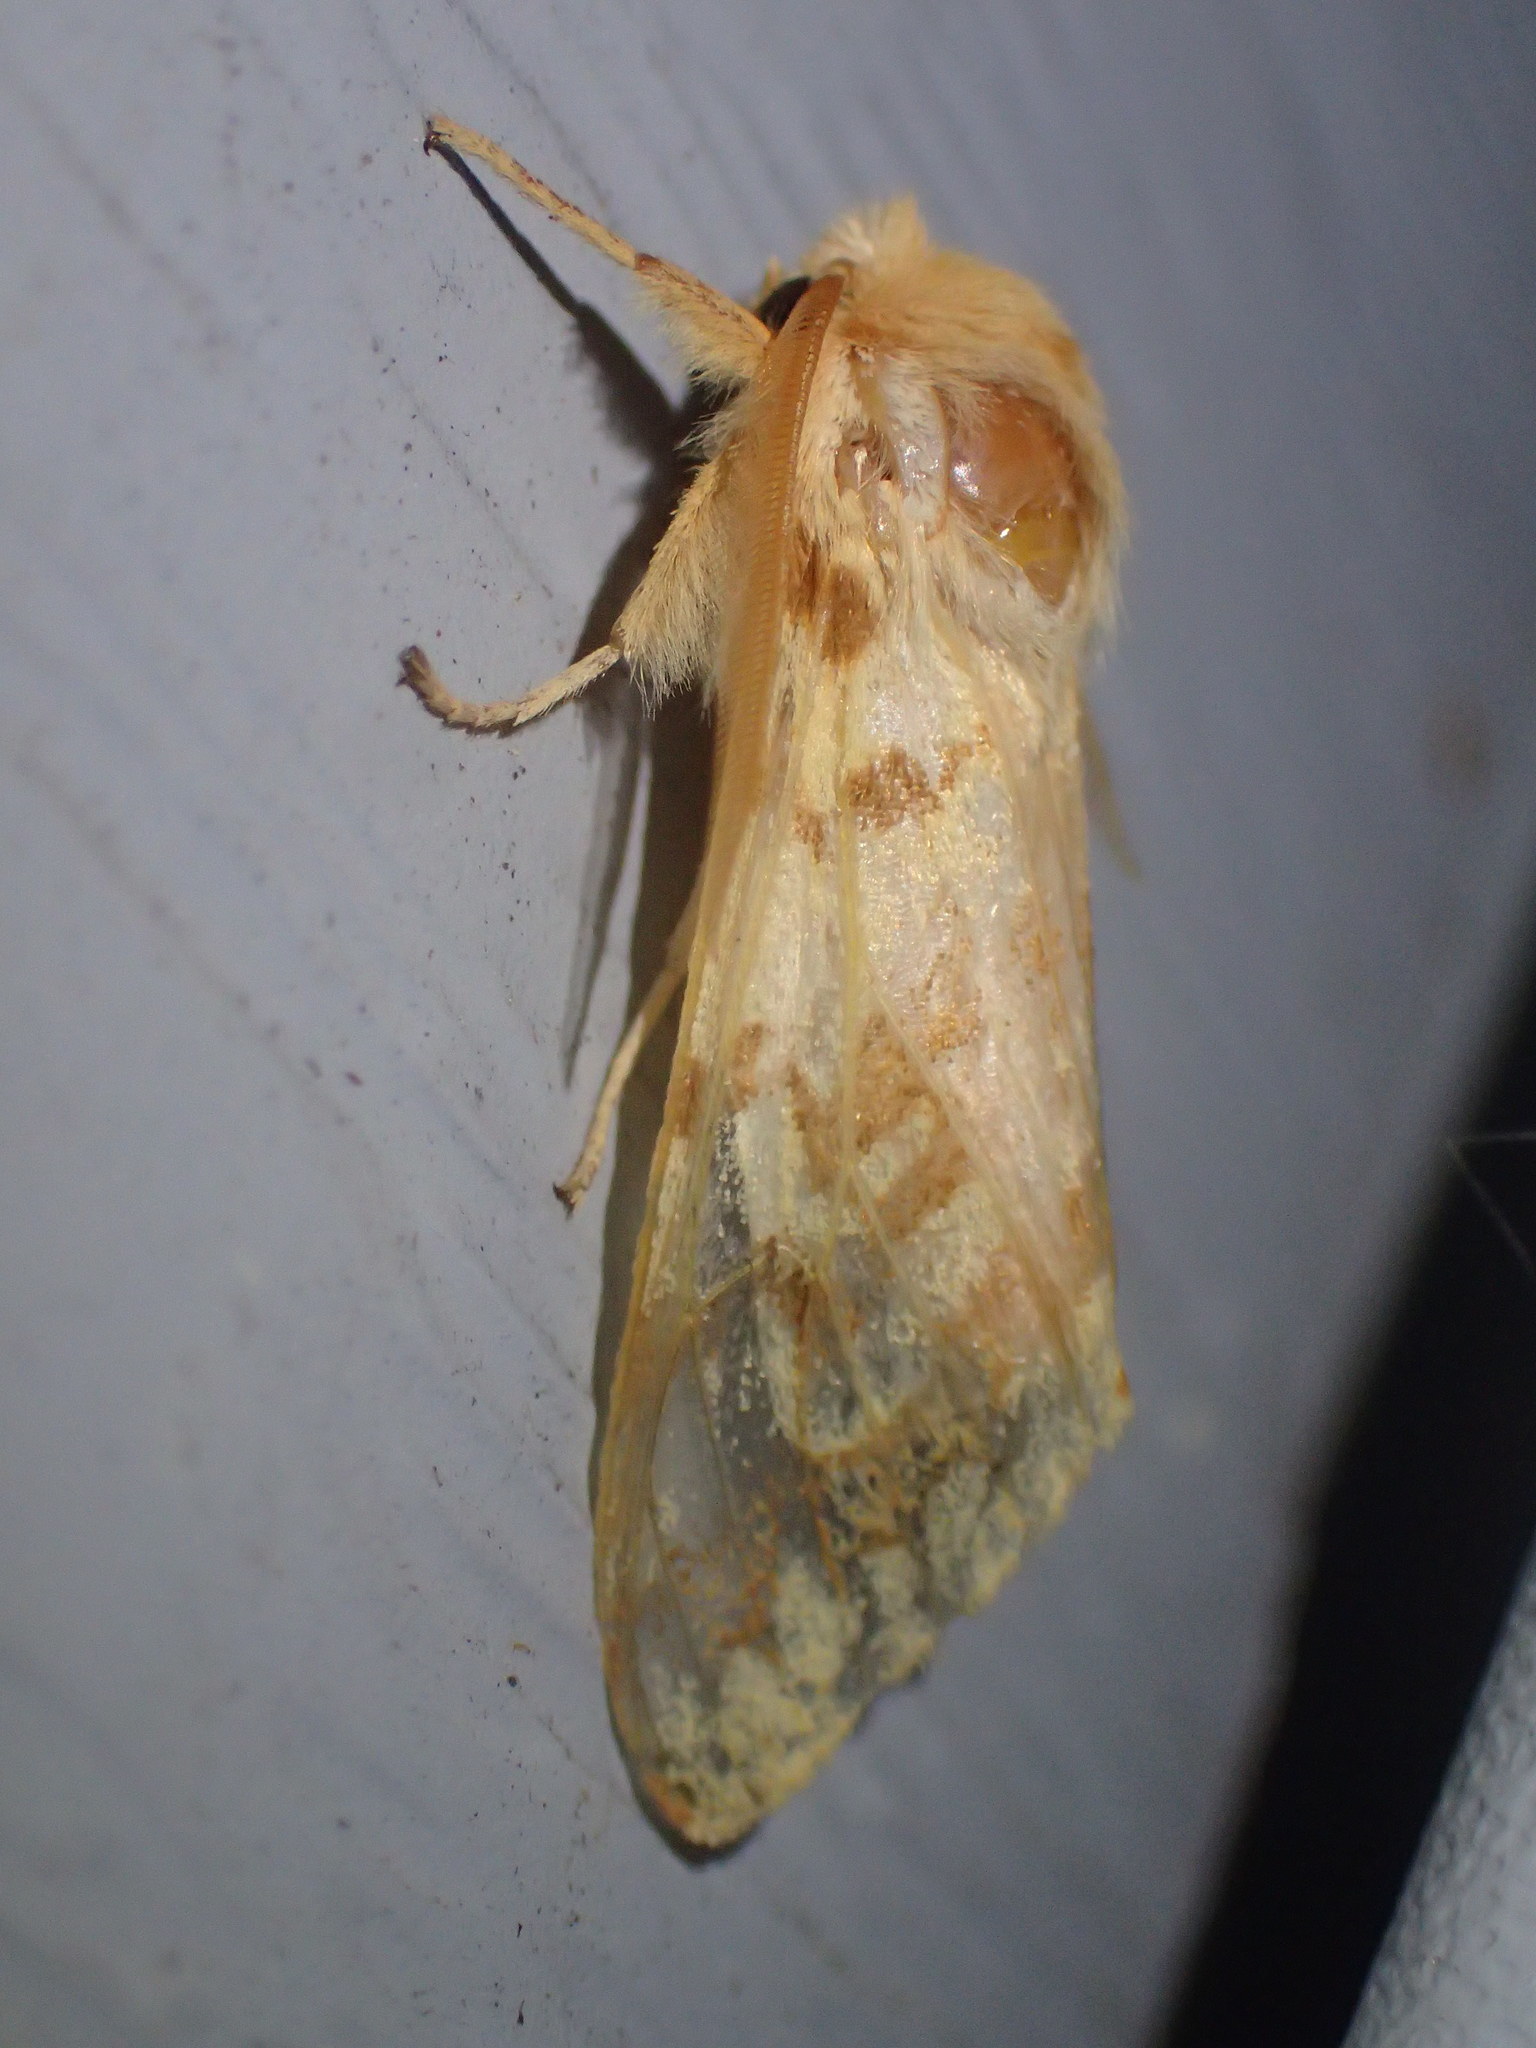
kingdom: Animalia
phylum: Arthropoda
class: Insecta
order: Lepidoptera
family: Erebidae
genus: Lophocampa
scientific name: Lophocampa maculata
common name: Spotted tussock moth
